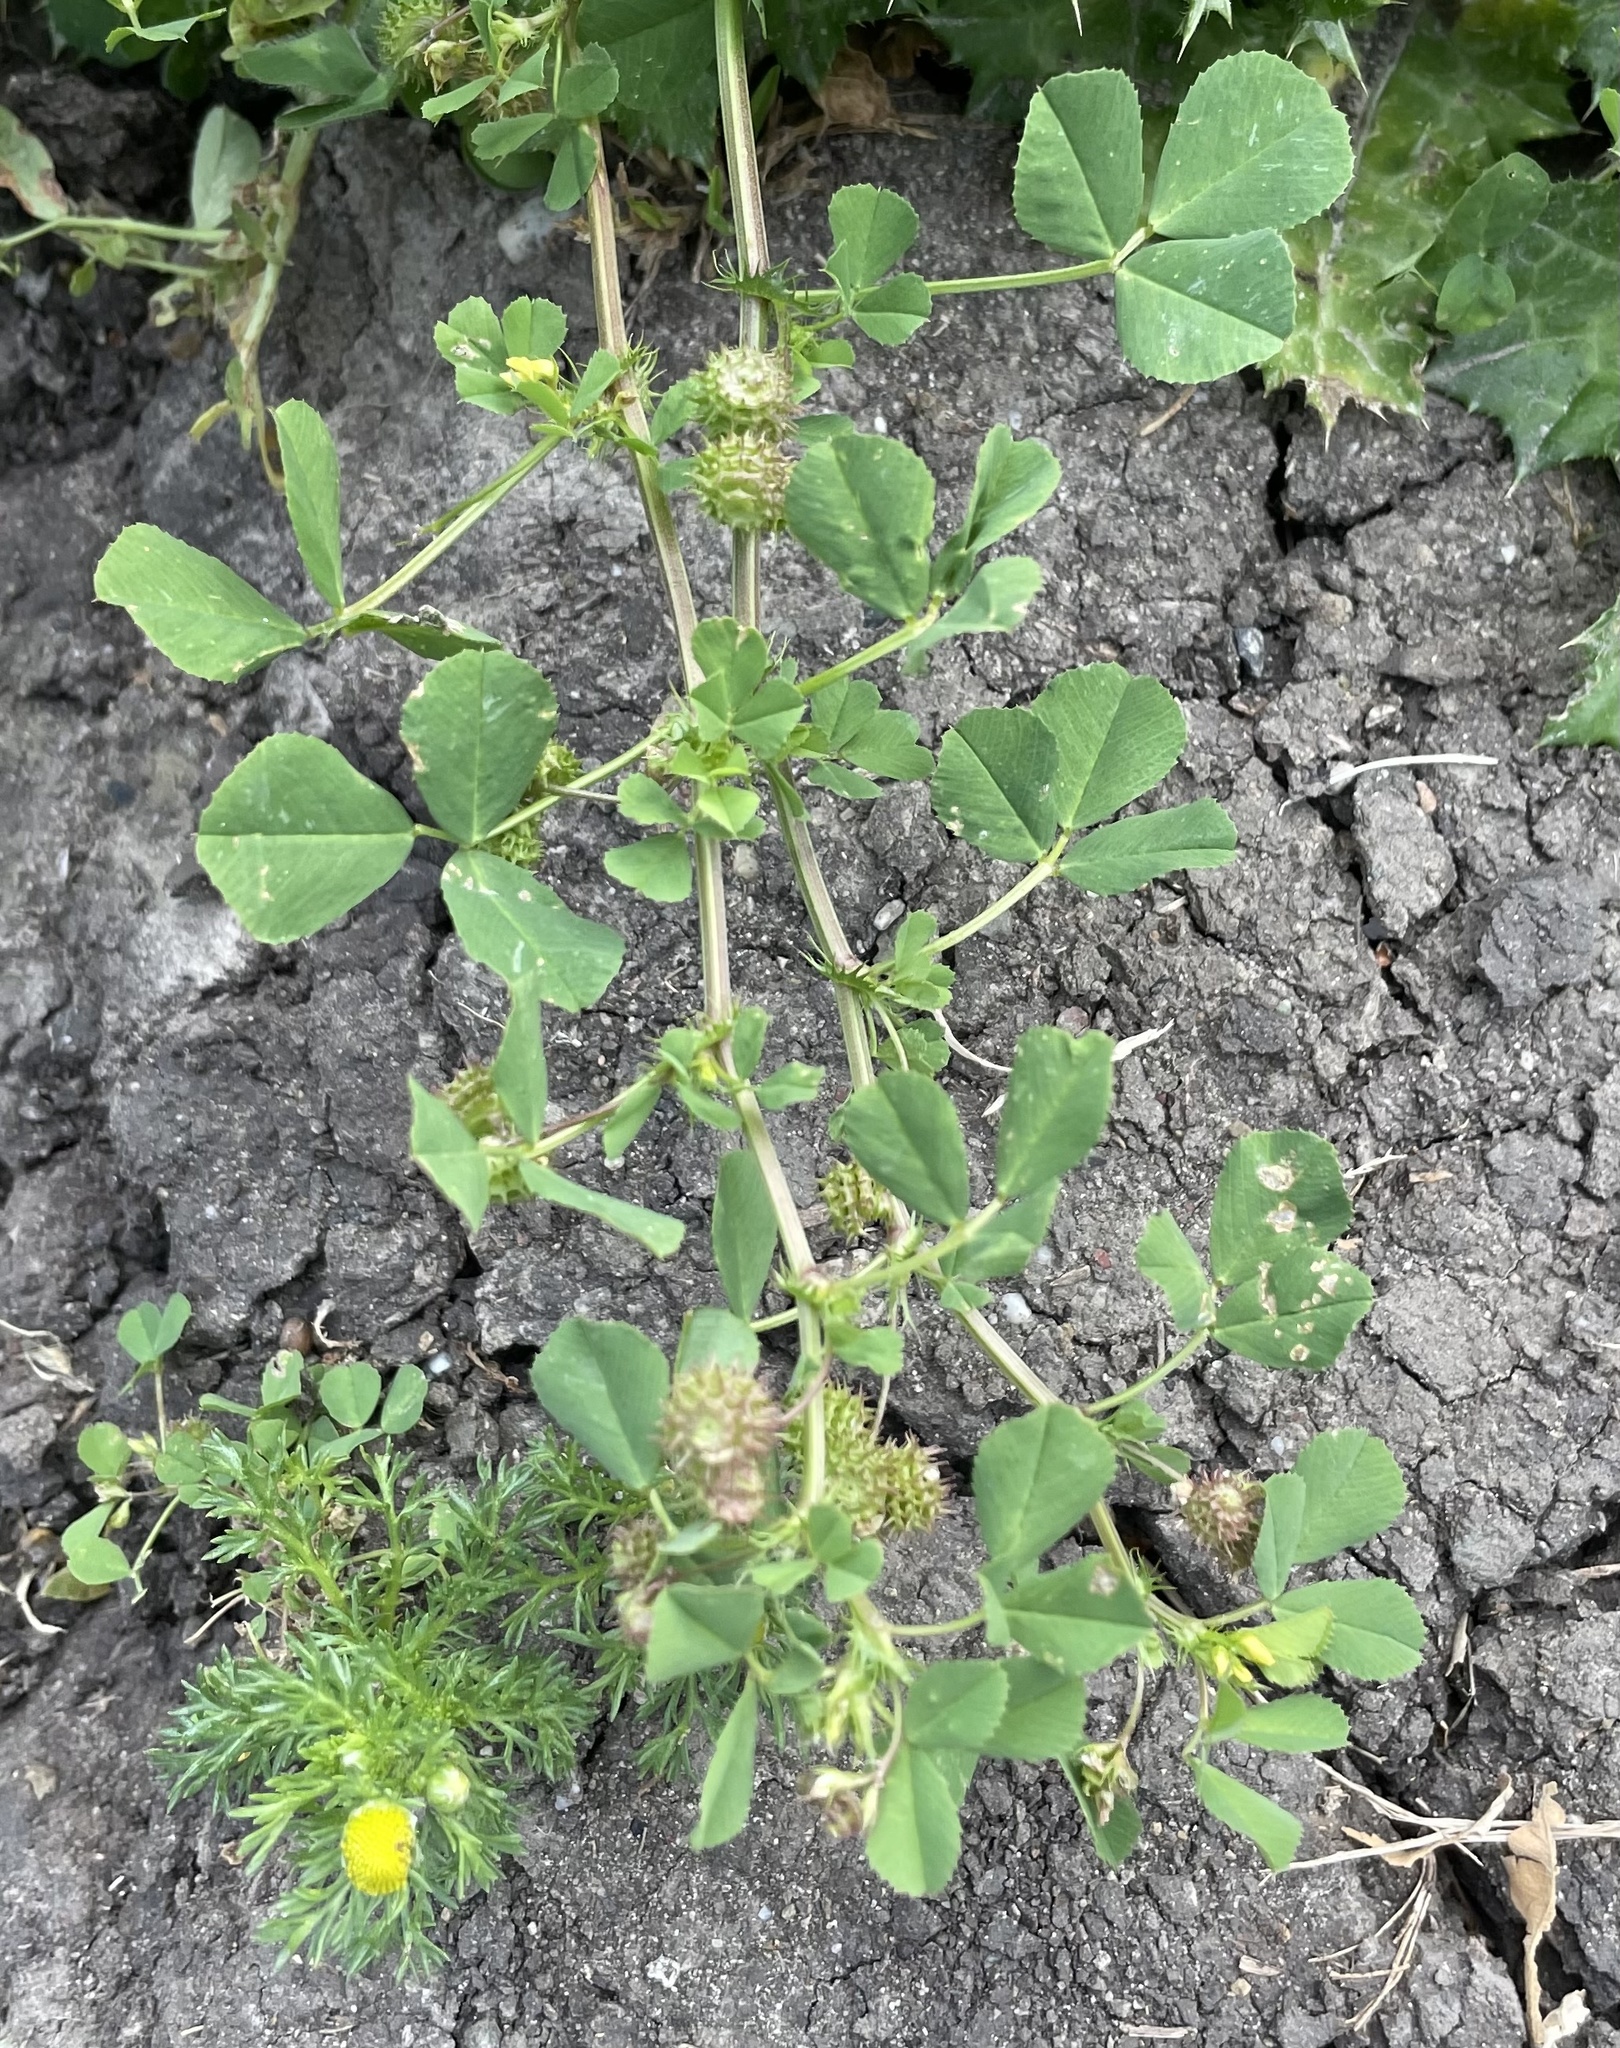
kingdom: Plantae
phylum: Tracheophyta
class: Magnoliopsida
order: Fabales
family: Fabaceae
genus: Medicago
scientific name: Medicago polymorpha
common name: Burclover
